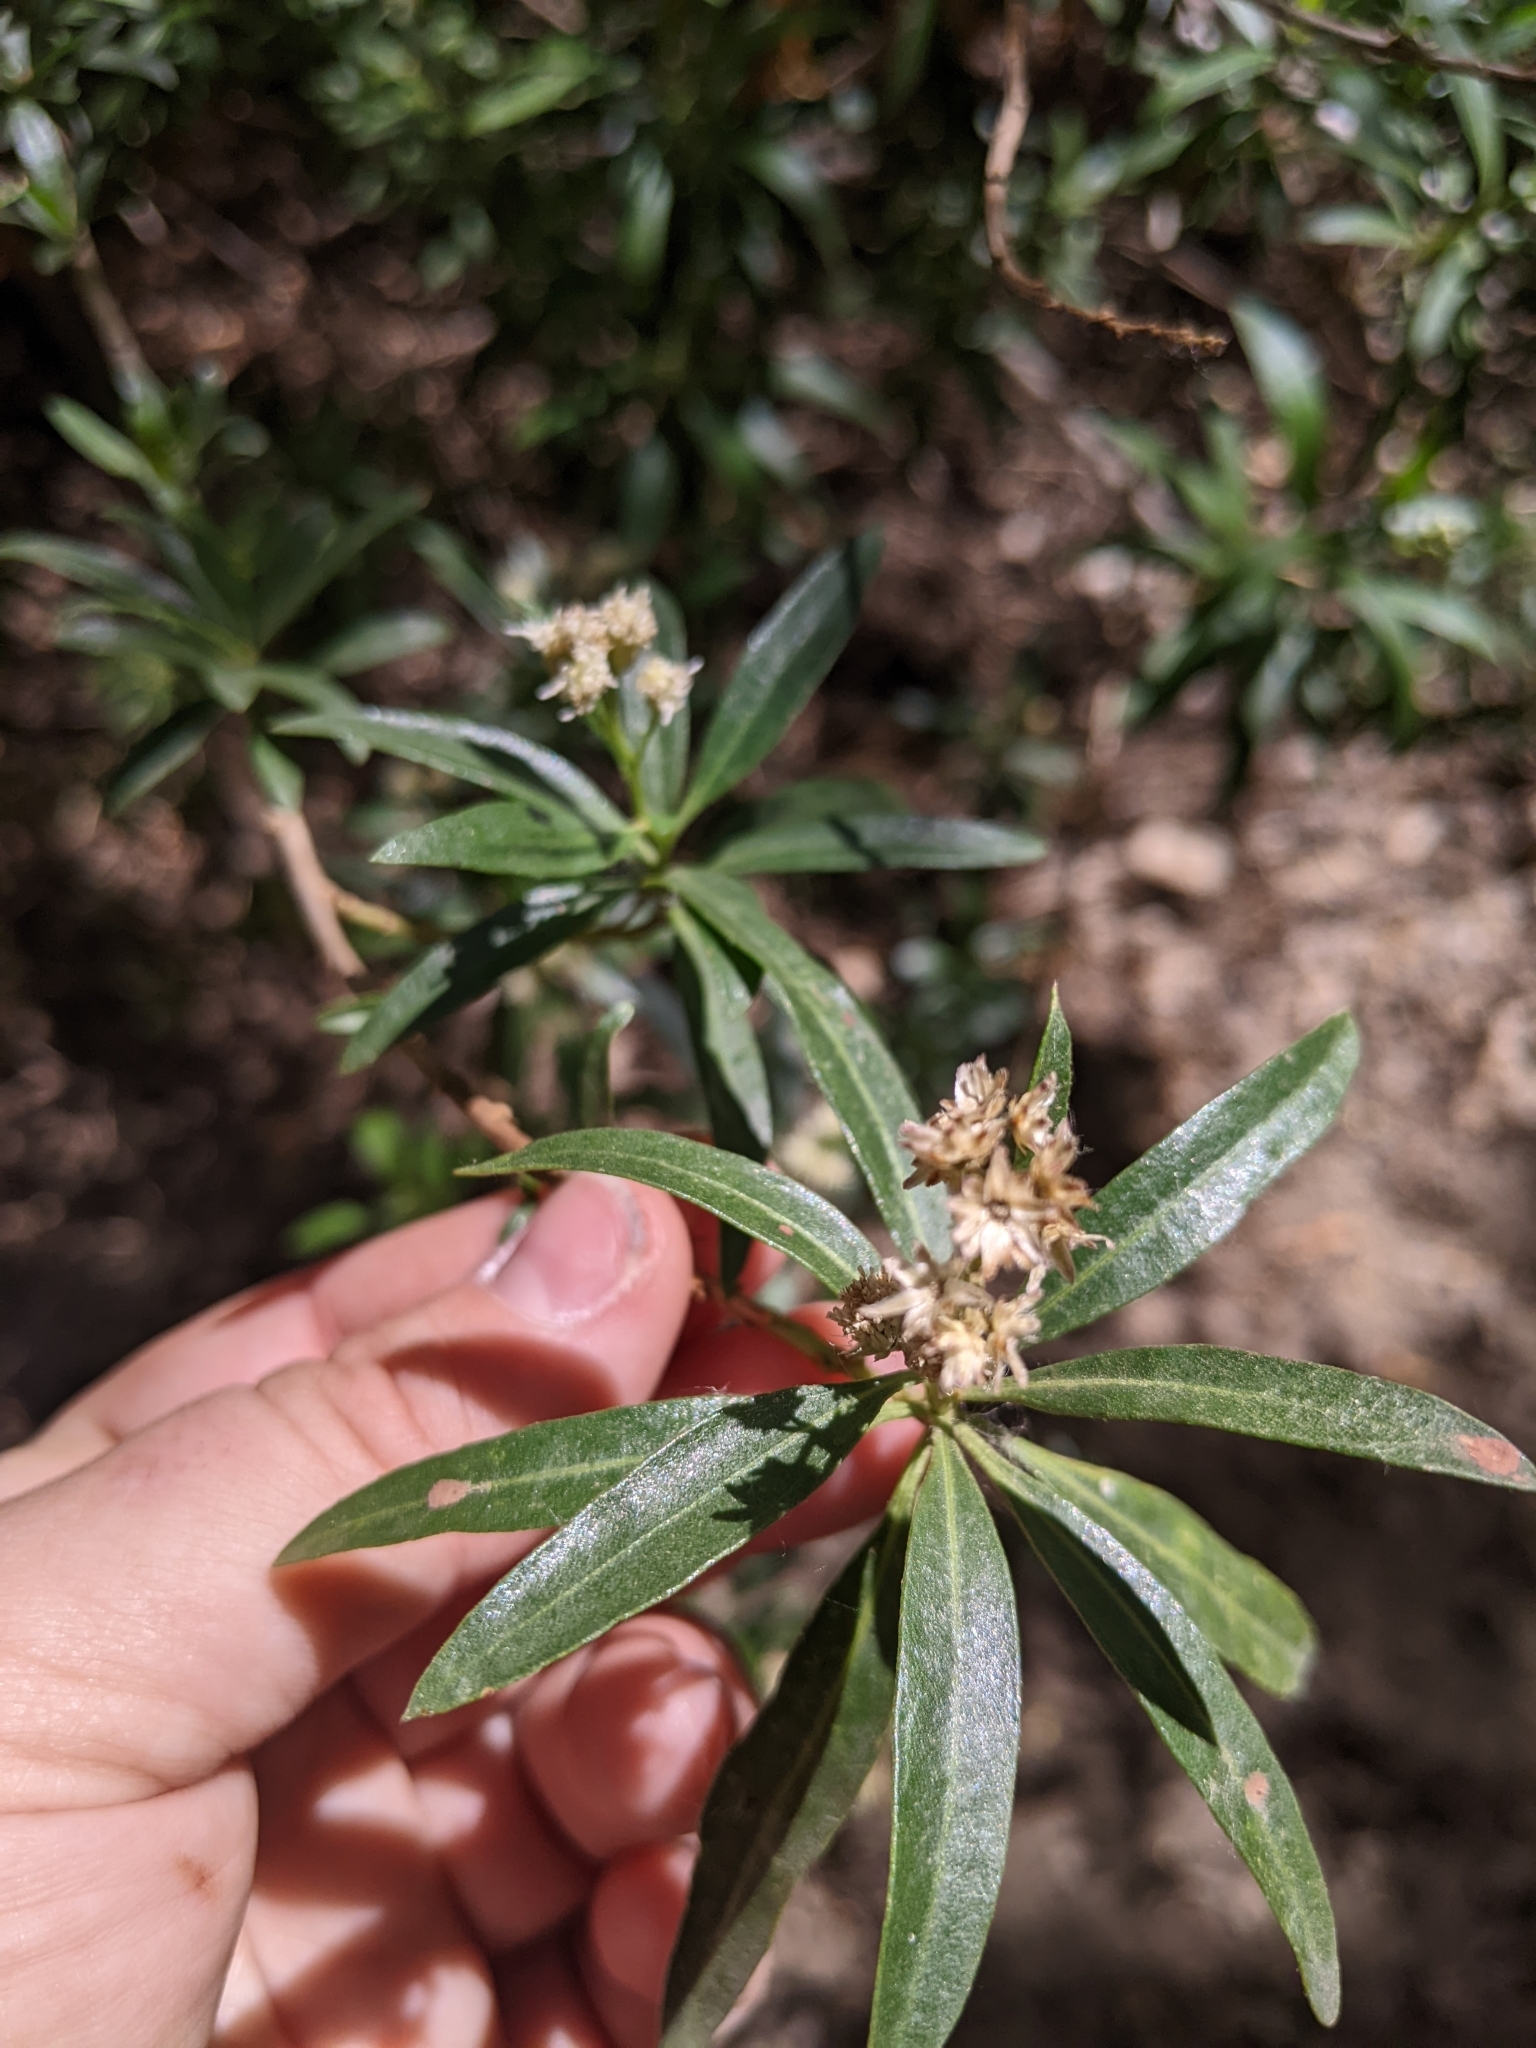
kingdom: Plantae
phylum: Tracheophyta
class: Magnoliopsida
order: Asterales
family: Asteraceae
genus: Baccharis
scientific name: Baccharis salicifolia
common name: Sticky baccharis
